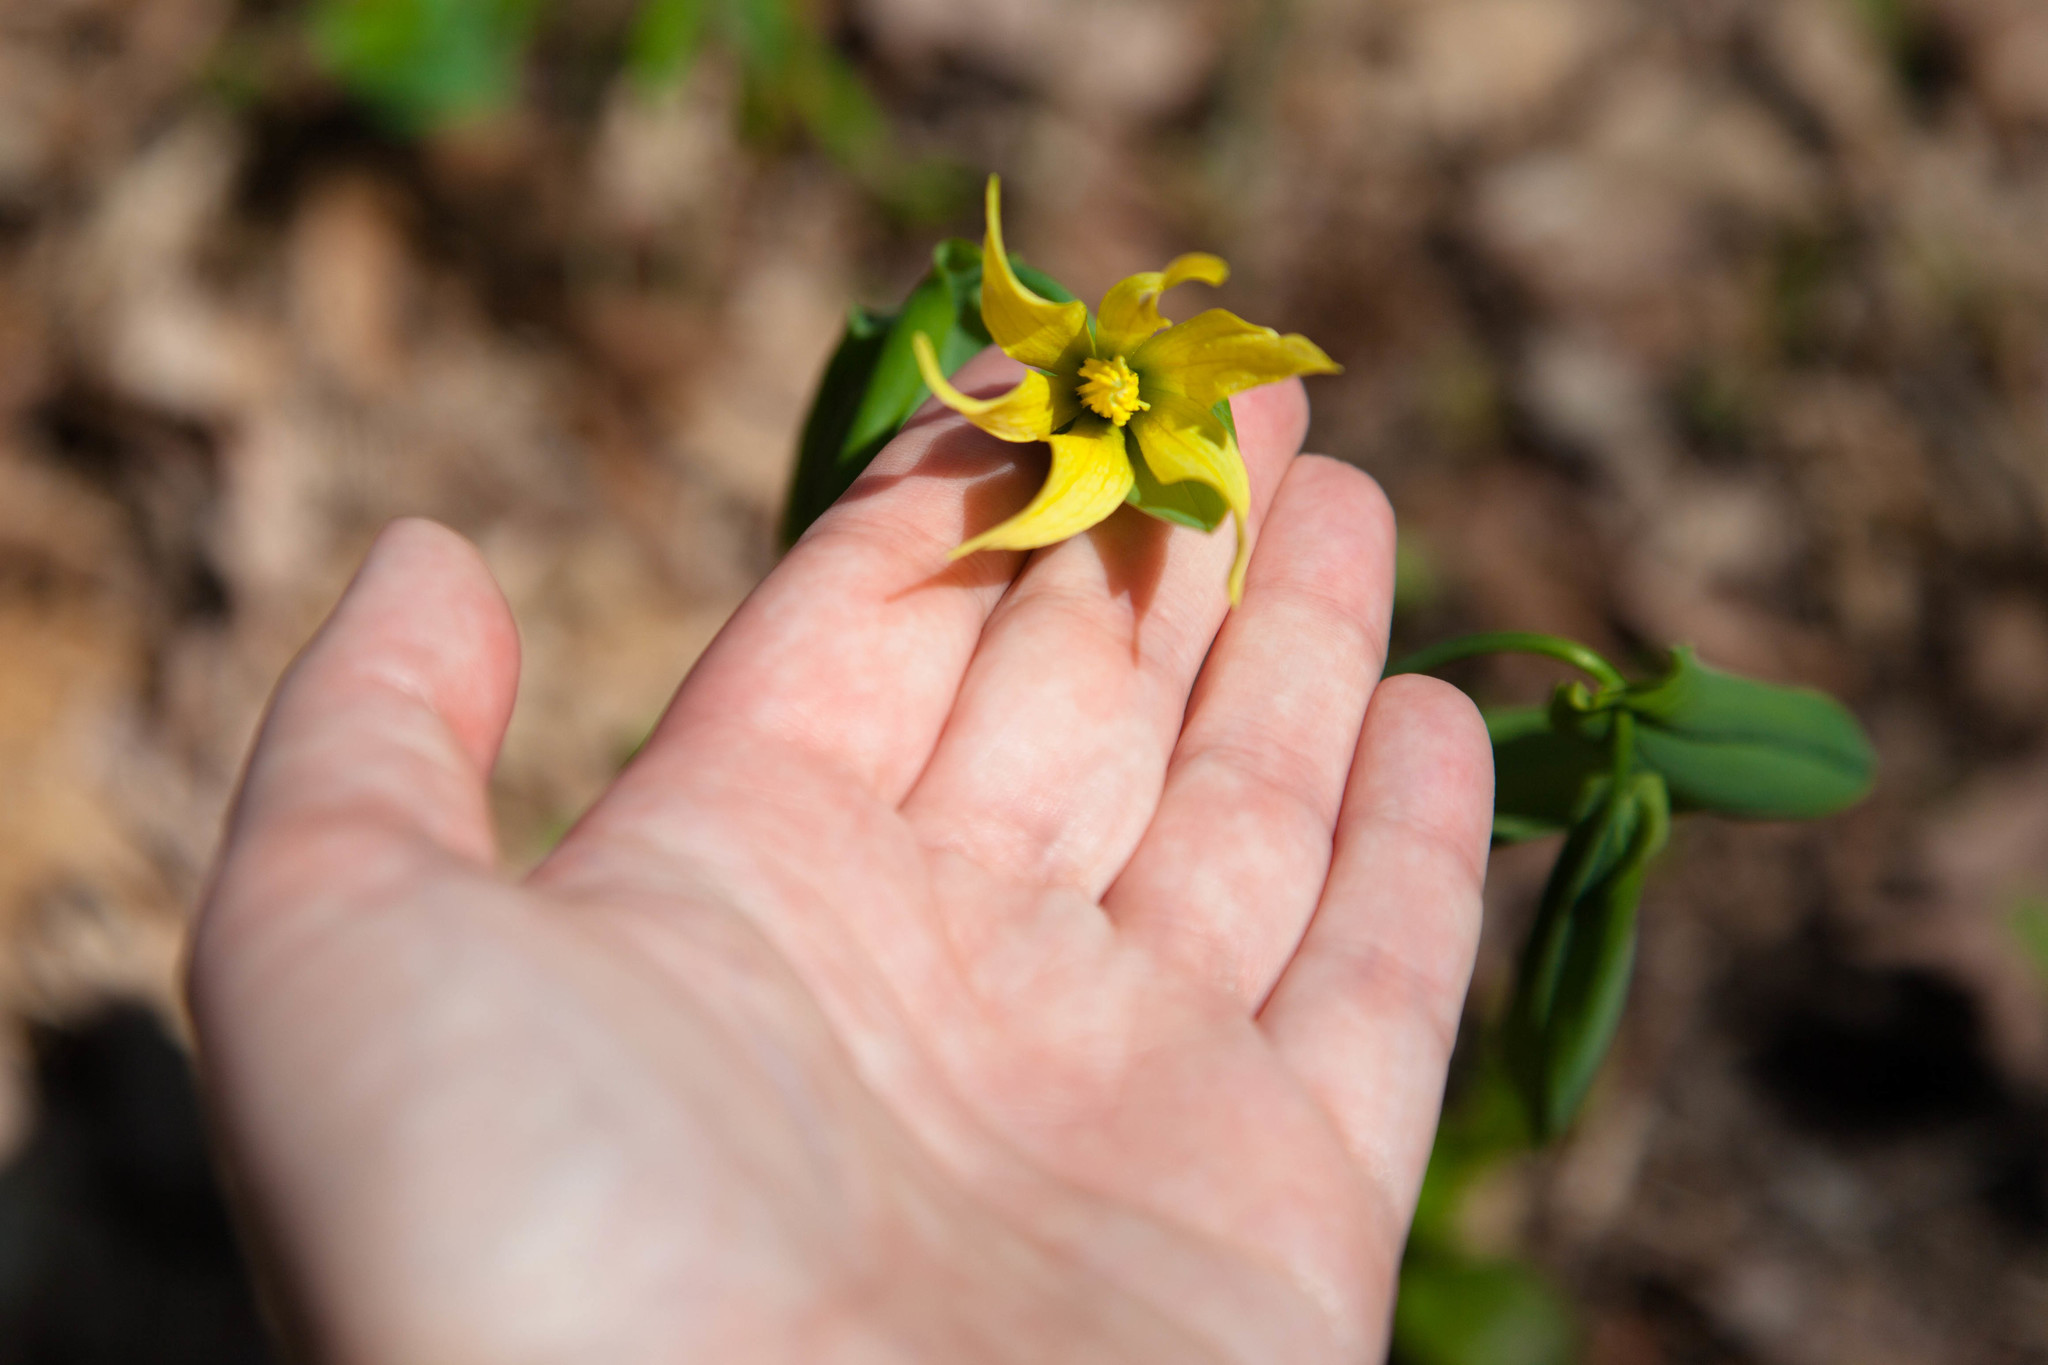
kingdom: Plantae
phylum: Tracheophyta
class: Liliopsida
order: Liliales
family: Colchicaceae
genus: Uvularia
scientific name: Uvularia grandiflora
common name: Bellwort
